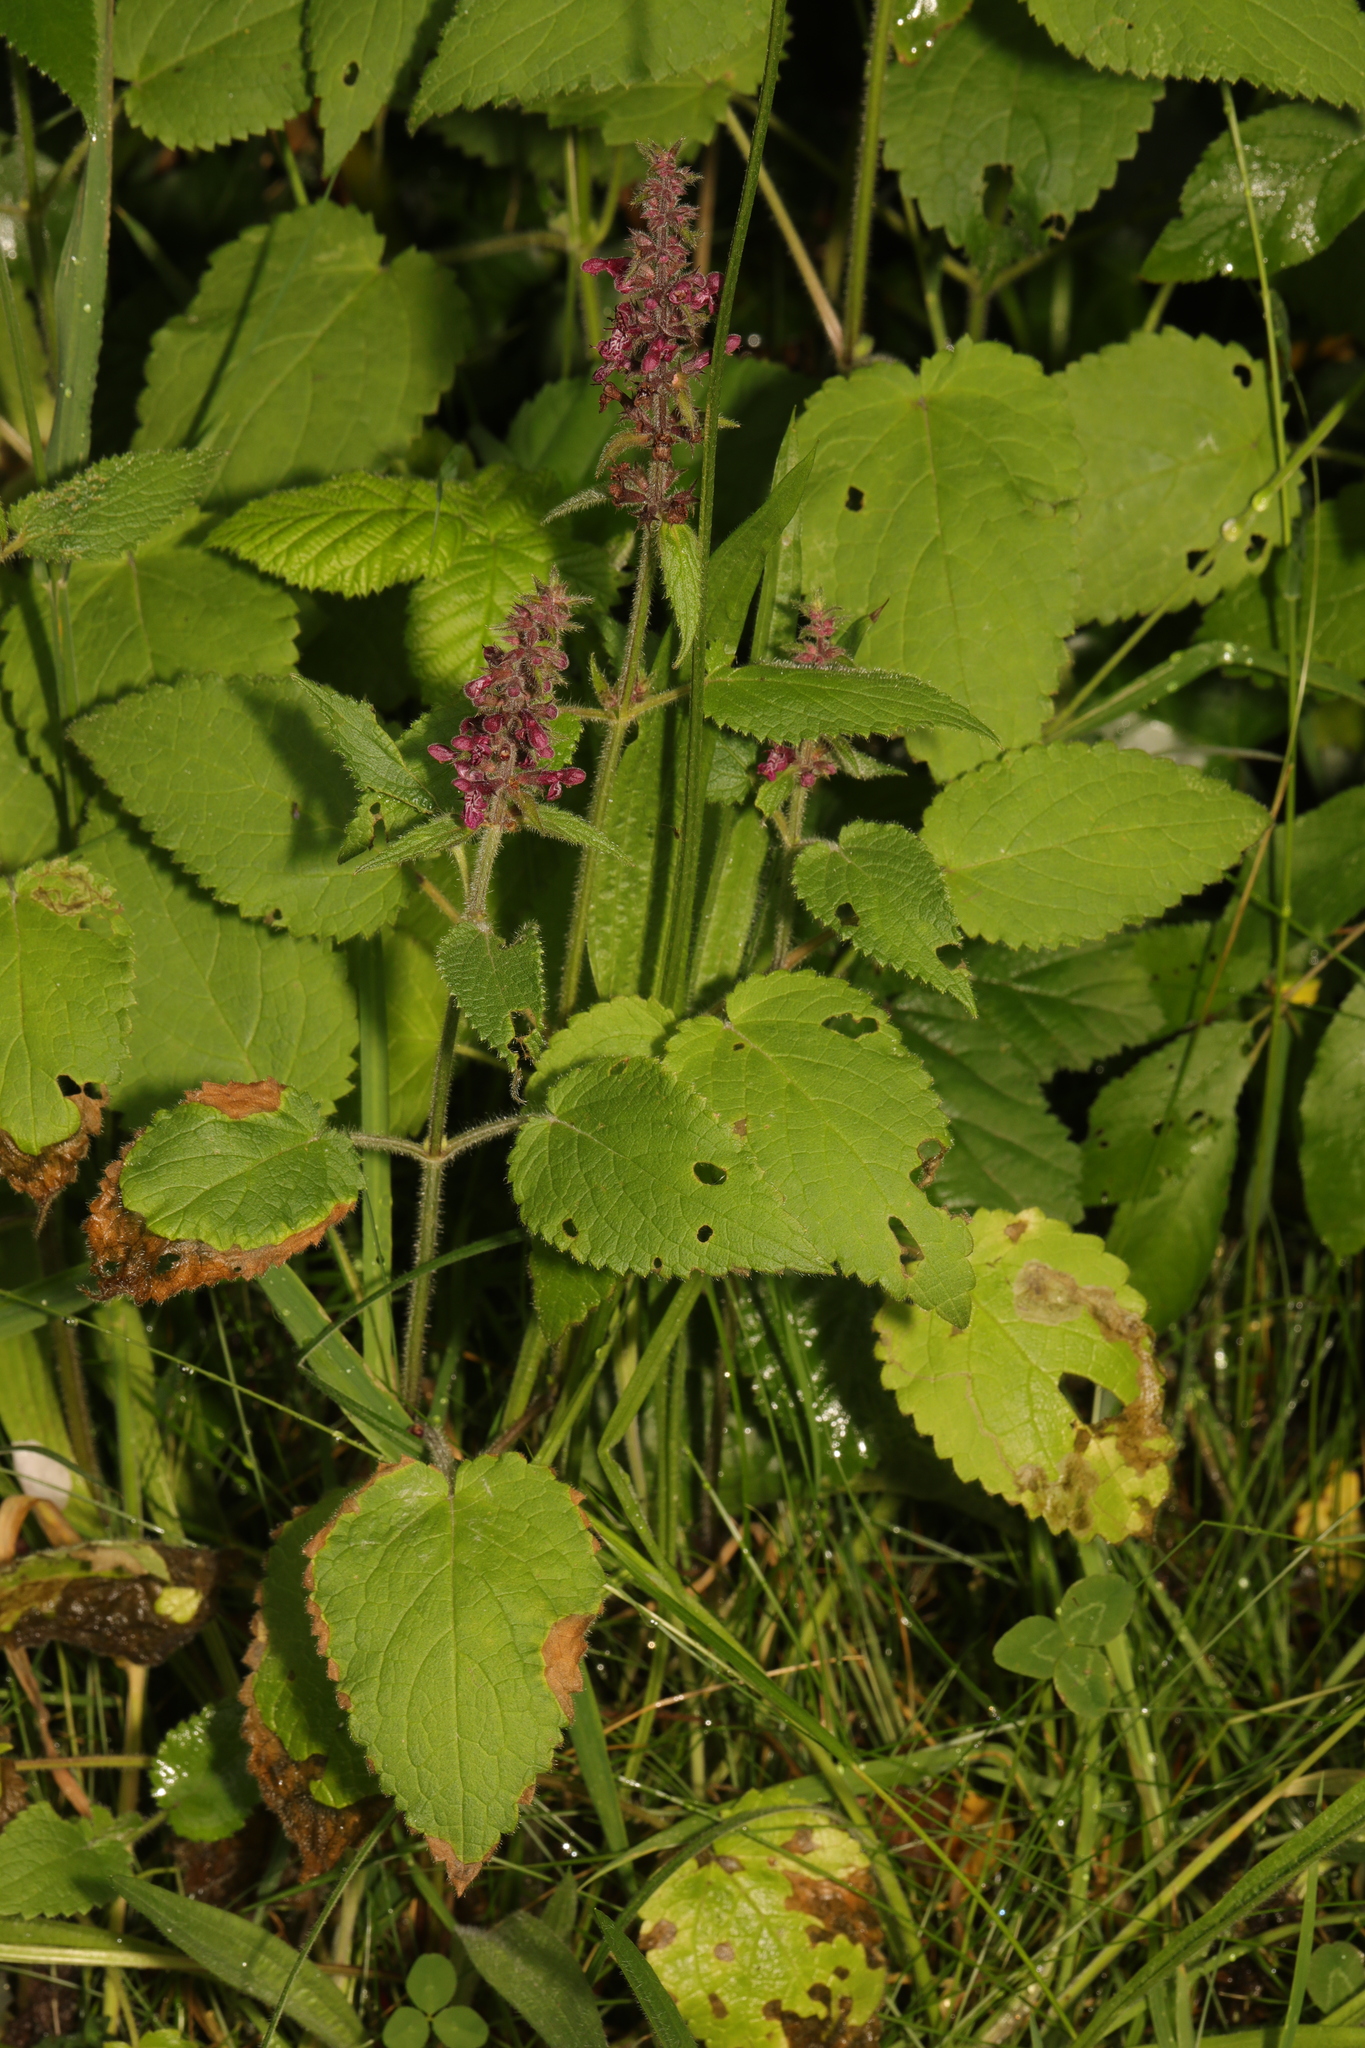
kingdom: Plantae
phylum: Tracheophyta
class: Magnoliopsida
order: Lamiales
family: Lamiaceae
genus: Stachys
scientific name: Stachys sylvatica
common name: Hedge woundwort
